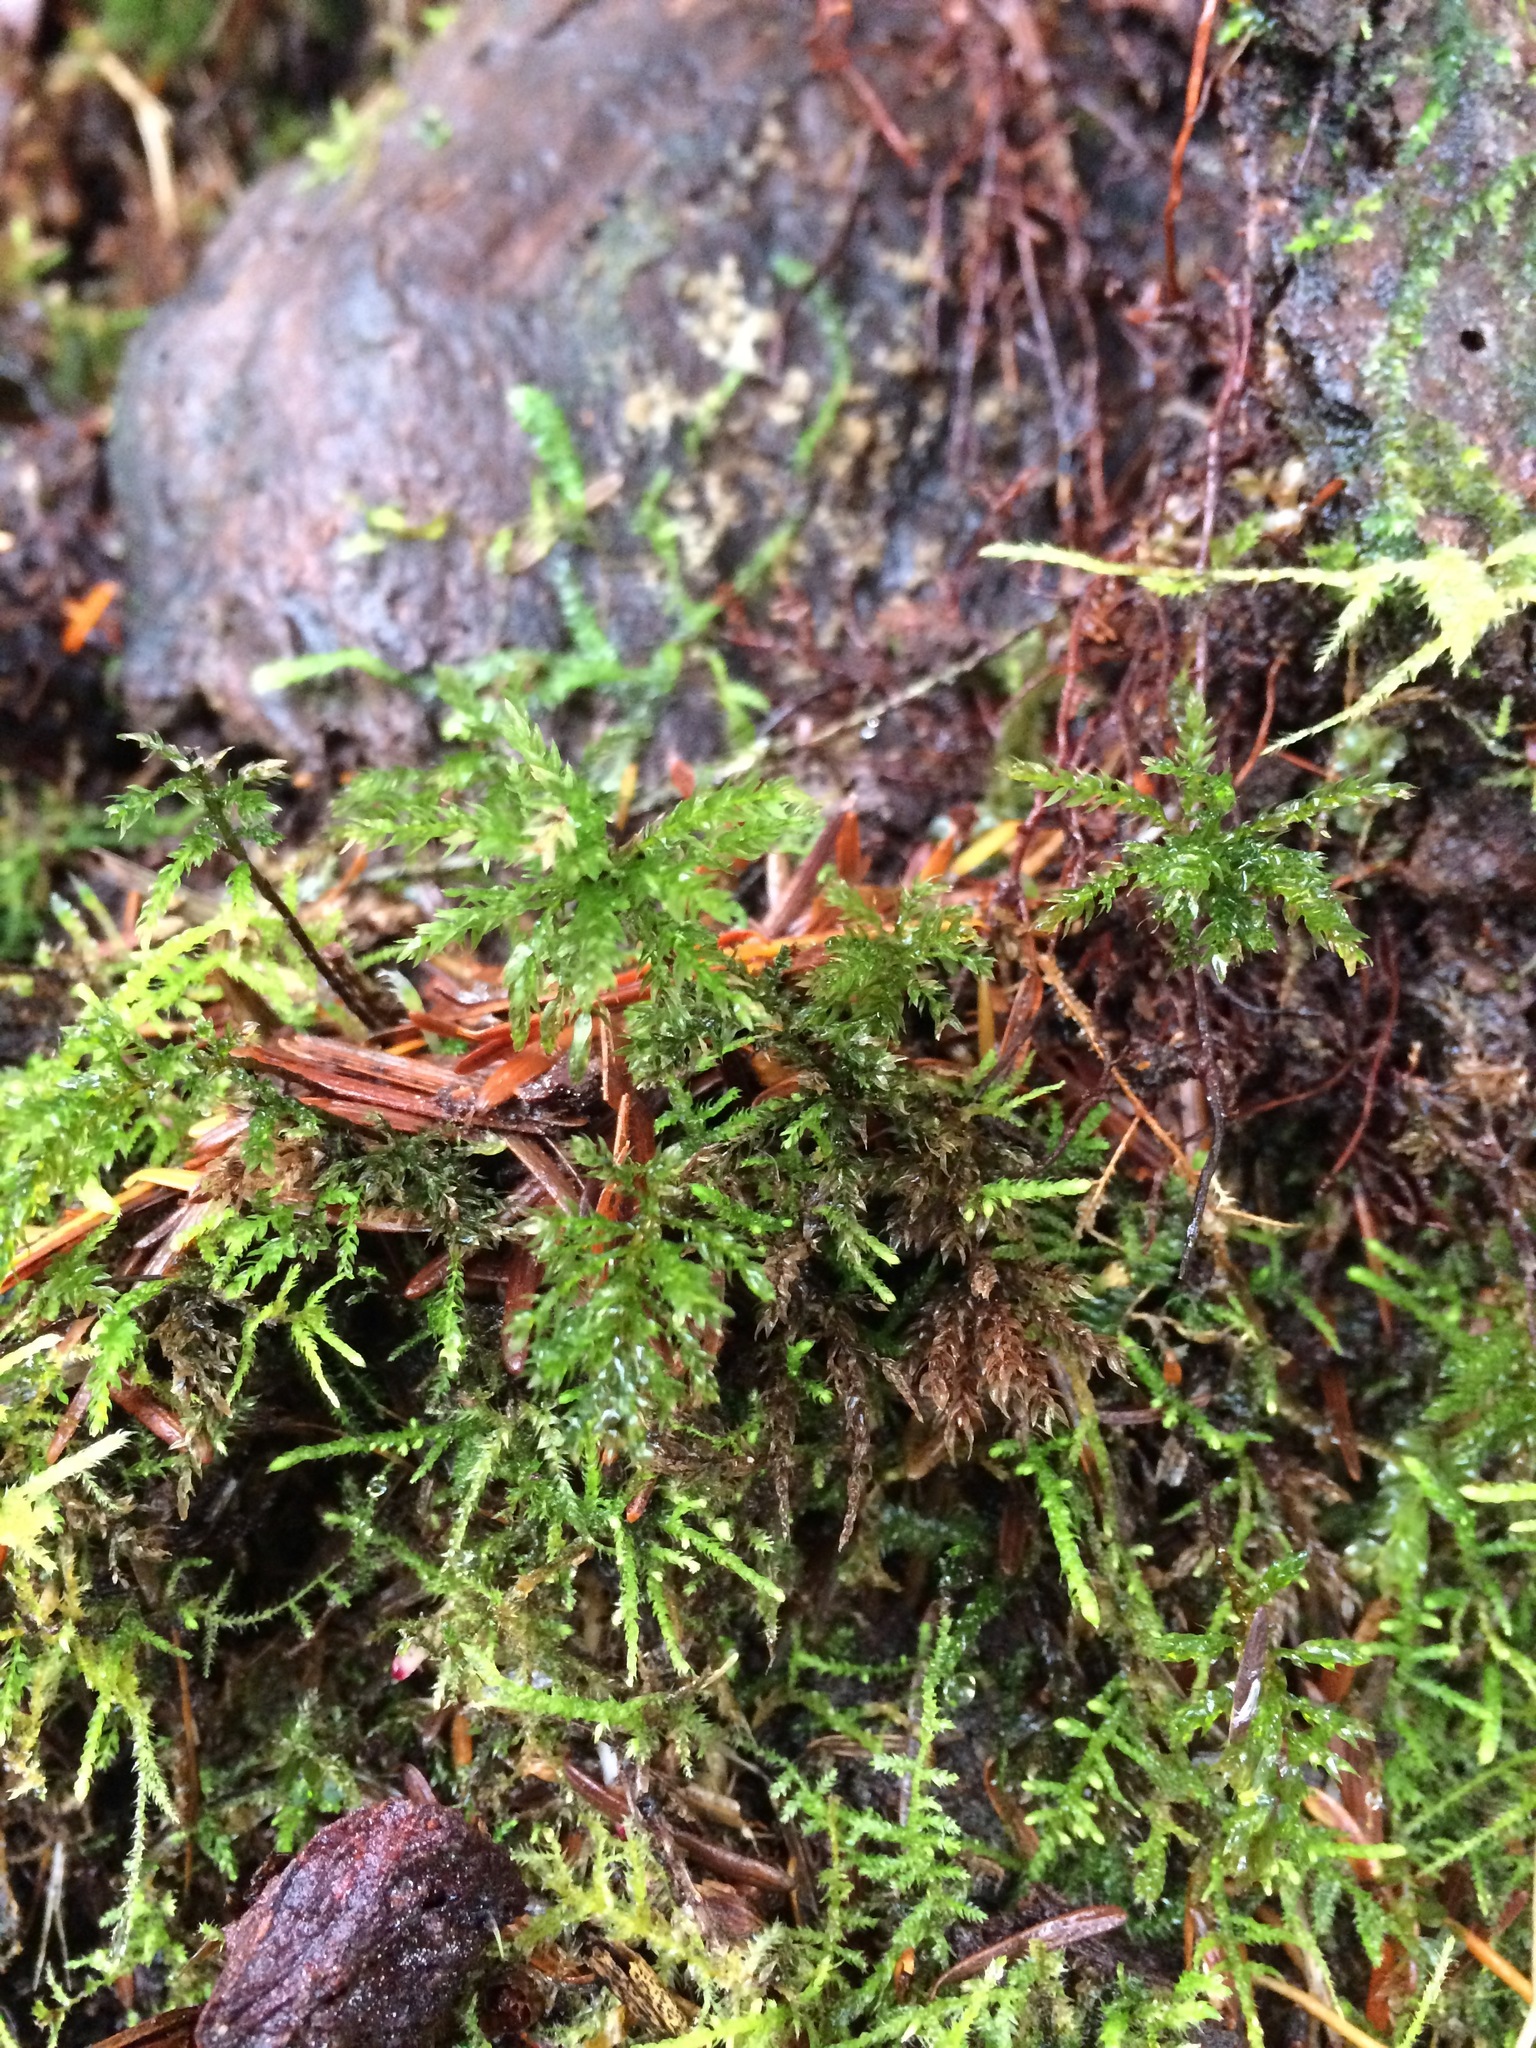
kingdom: Plantae
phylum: Bryophyta
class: Bryopsida
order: Bryales
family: Mniaceae
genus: Leucolepis
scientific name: Leucolepis acanthoneura
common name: Leucolepis umbrella moss
